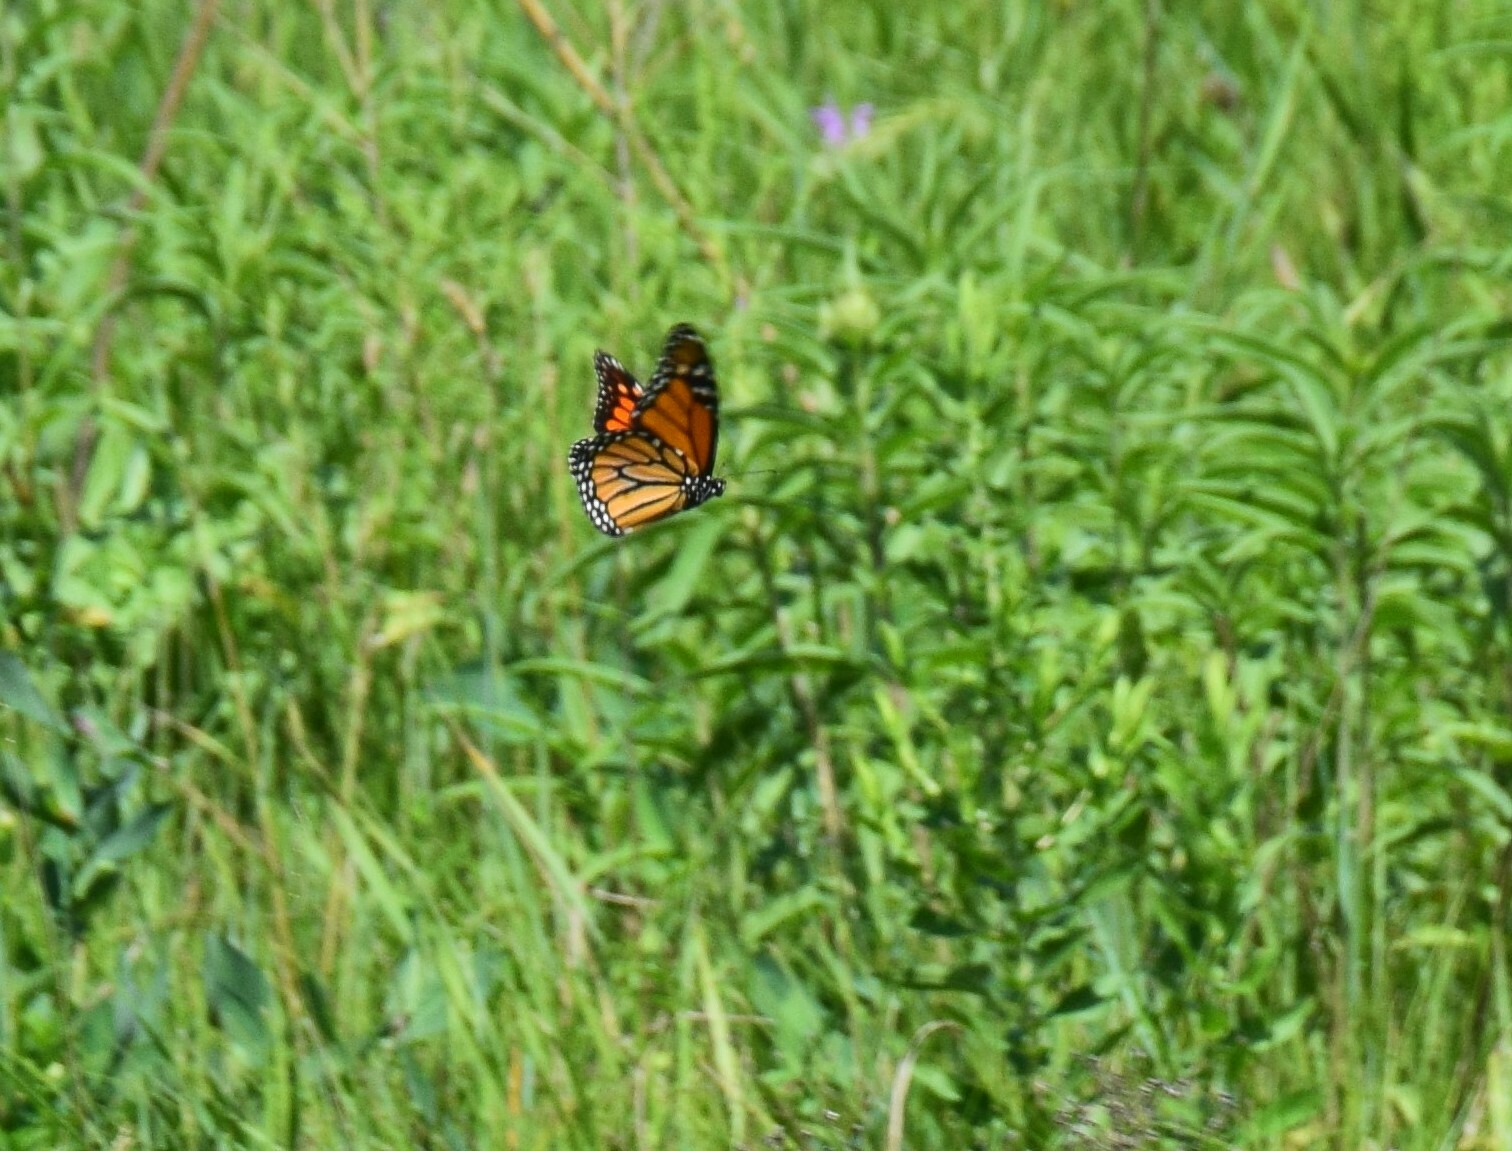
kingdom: Animalia
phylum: Arthropoda
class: Insecta
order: Lepidoptera
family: Nymphalidae
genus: Danaus
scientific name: Danaus plexippus
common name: Monarch
